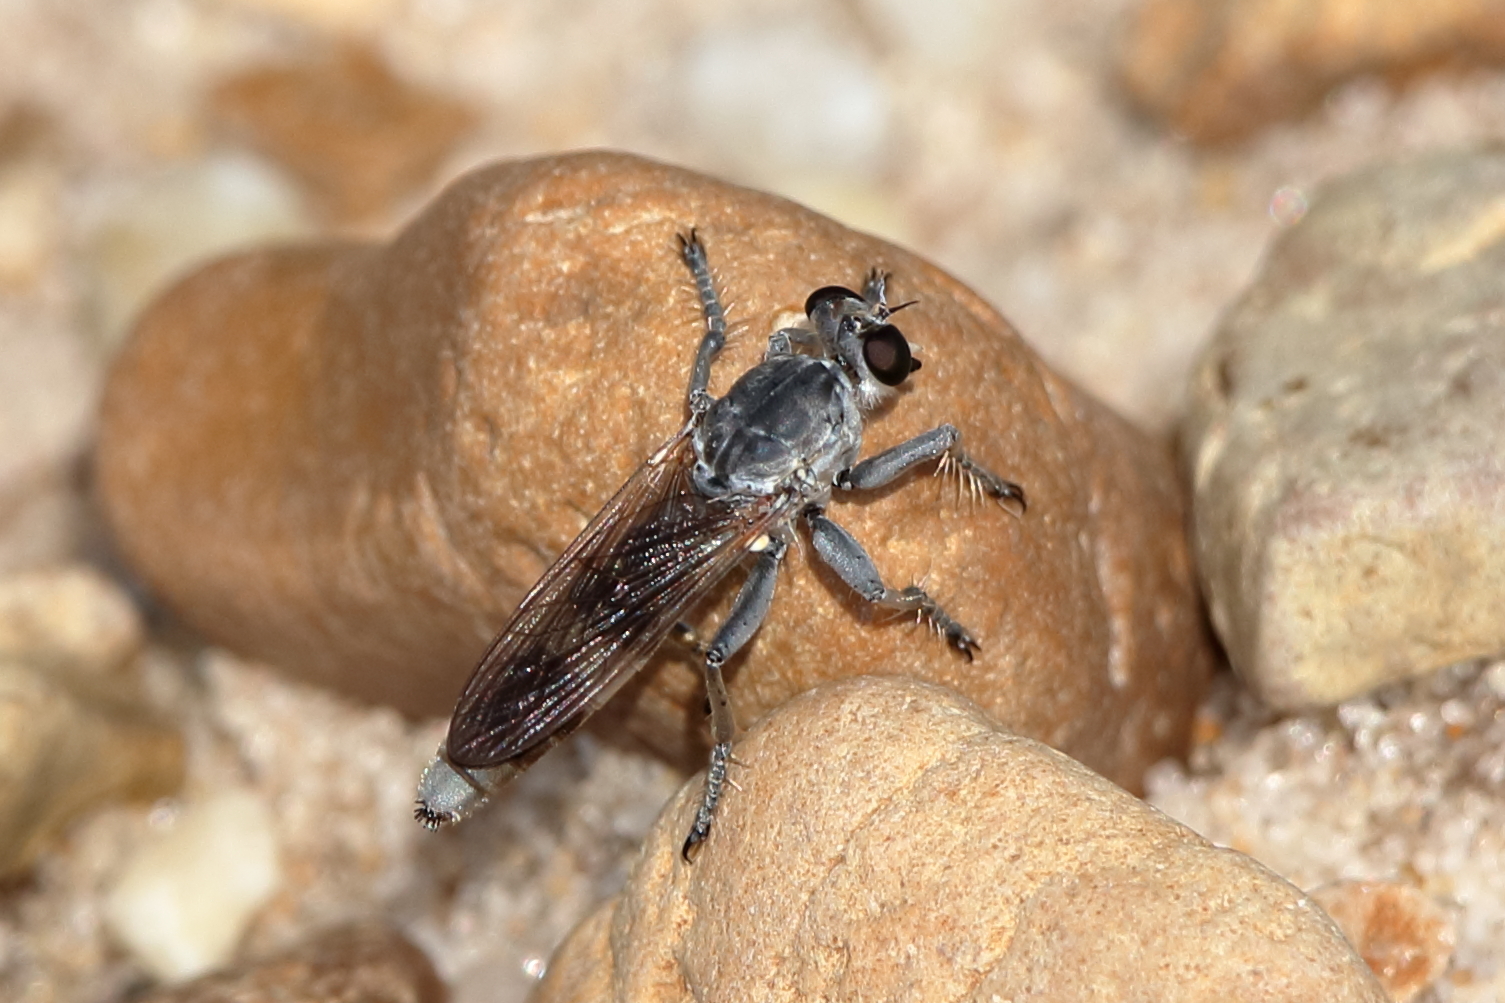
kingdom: Animalia
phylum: Arthropoda
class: Insecta
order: Diptera
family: Asilidae
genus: Stichopogon
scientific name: Stichopogon trifasciatus
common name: Three-banded robber fly
